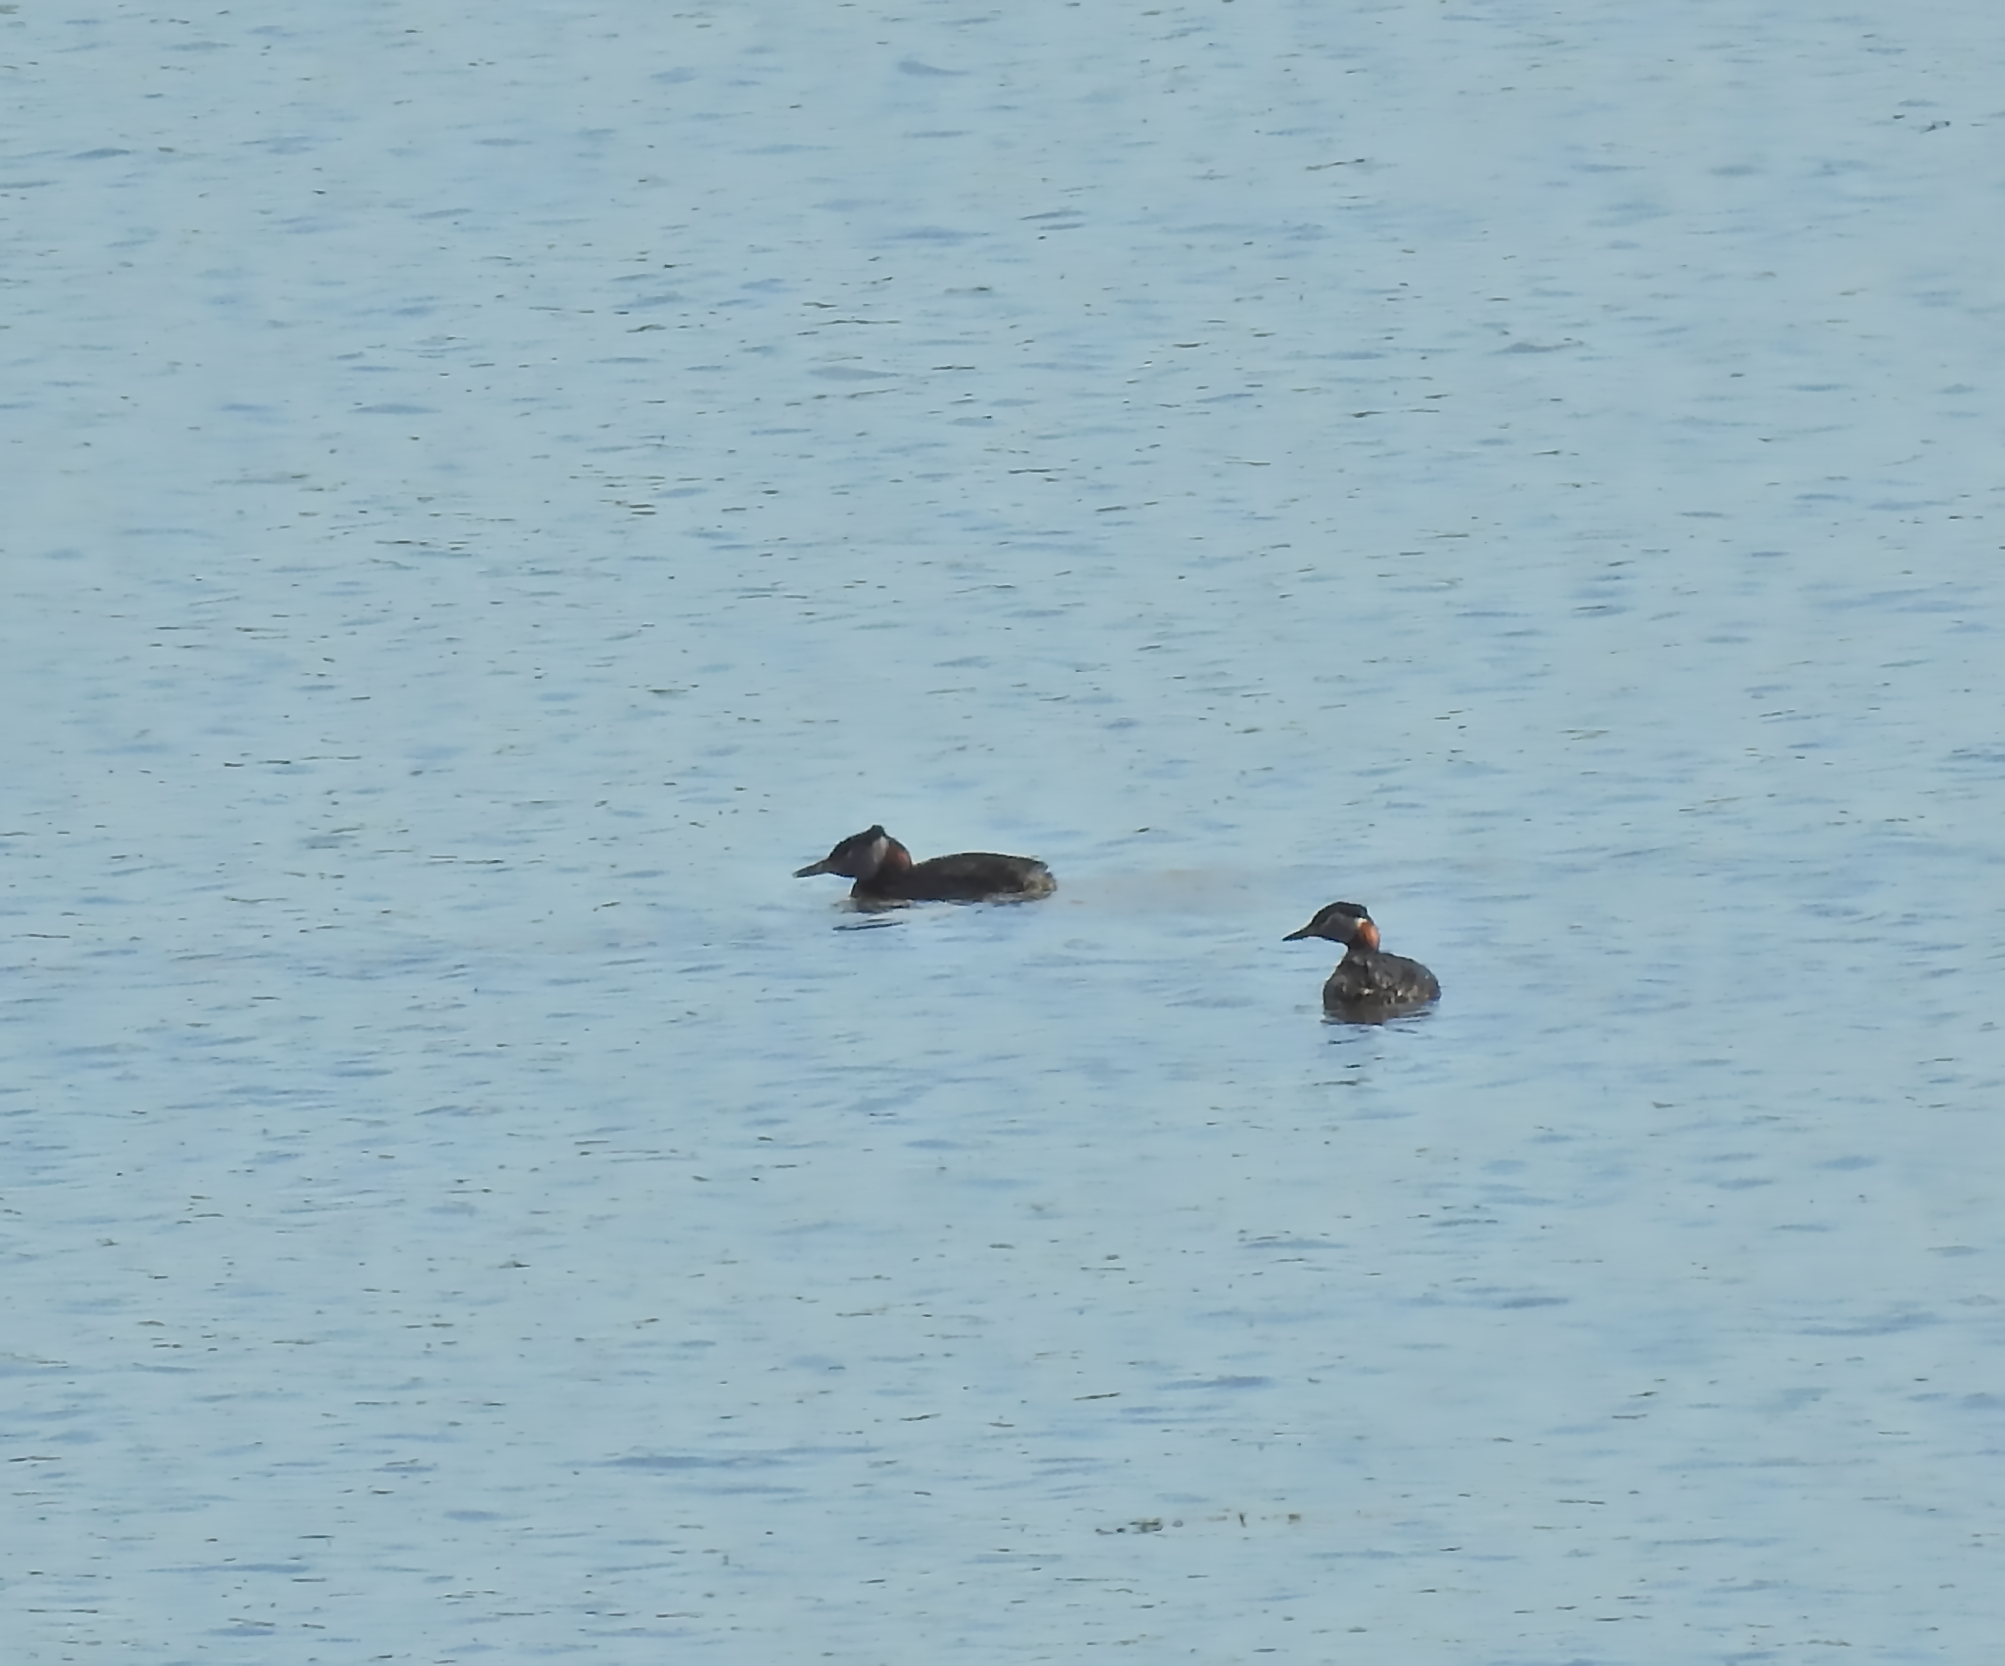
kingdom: Animalia
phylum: Chordata
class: Aves
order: Podicipediformes
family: Podicipedidae
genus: Podiceps
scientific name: Podiceps grisegena
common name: Red-necked grebe
